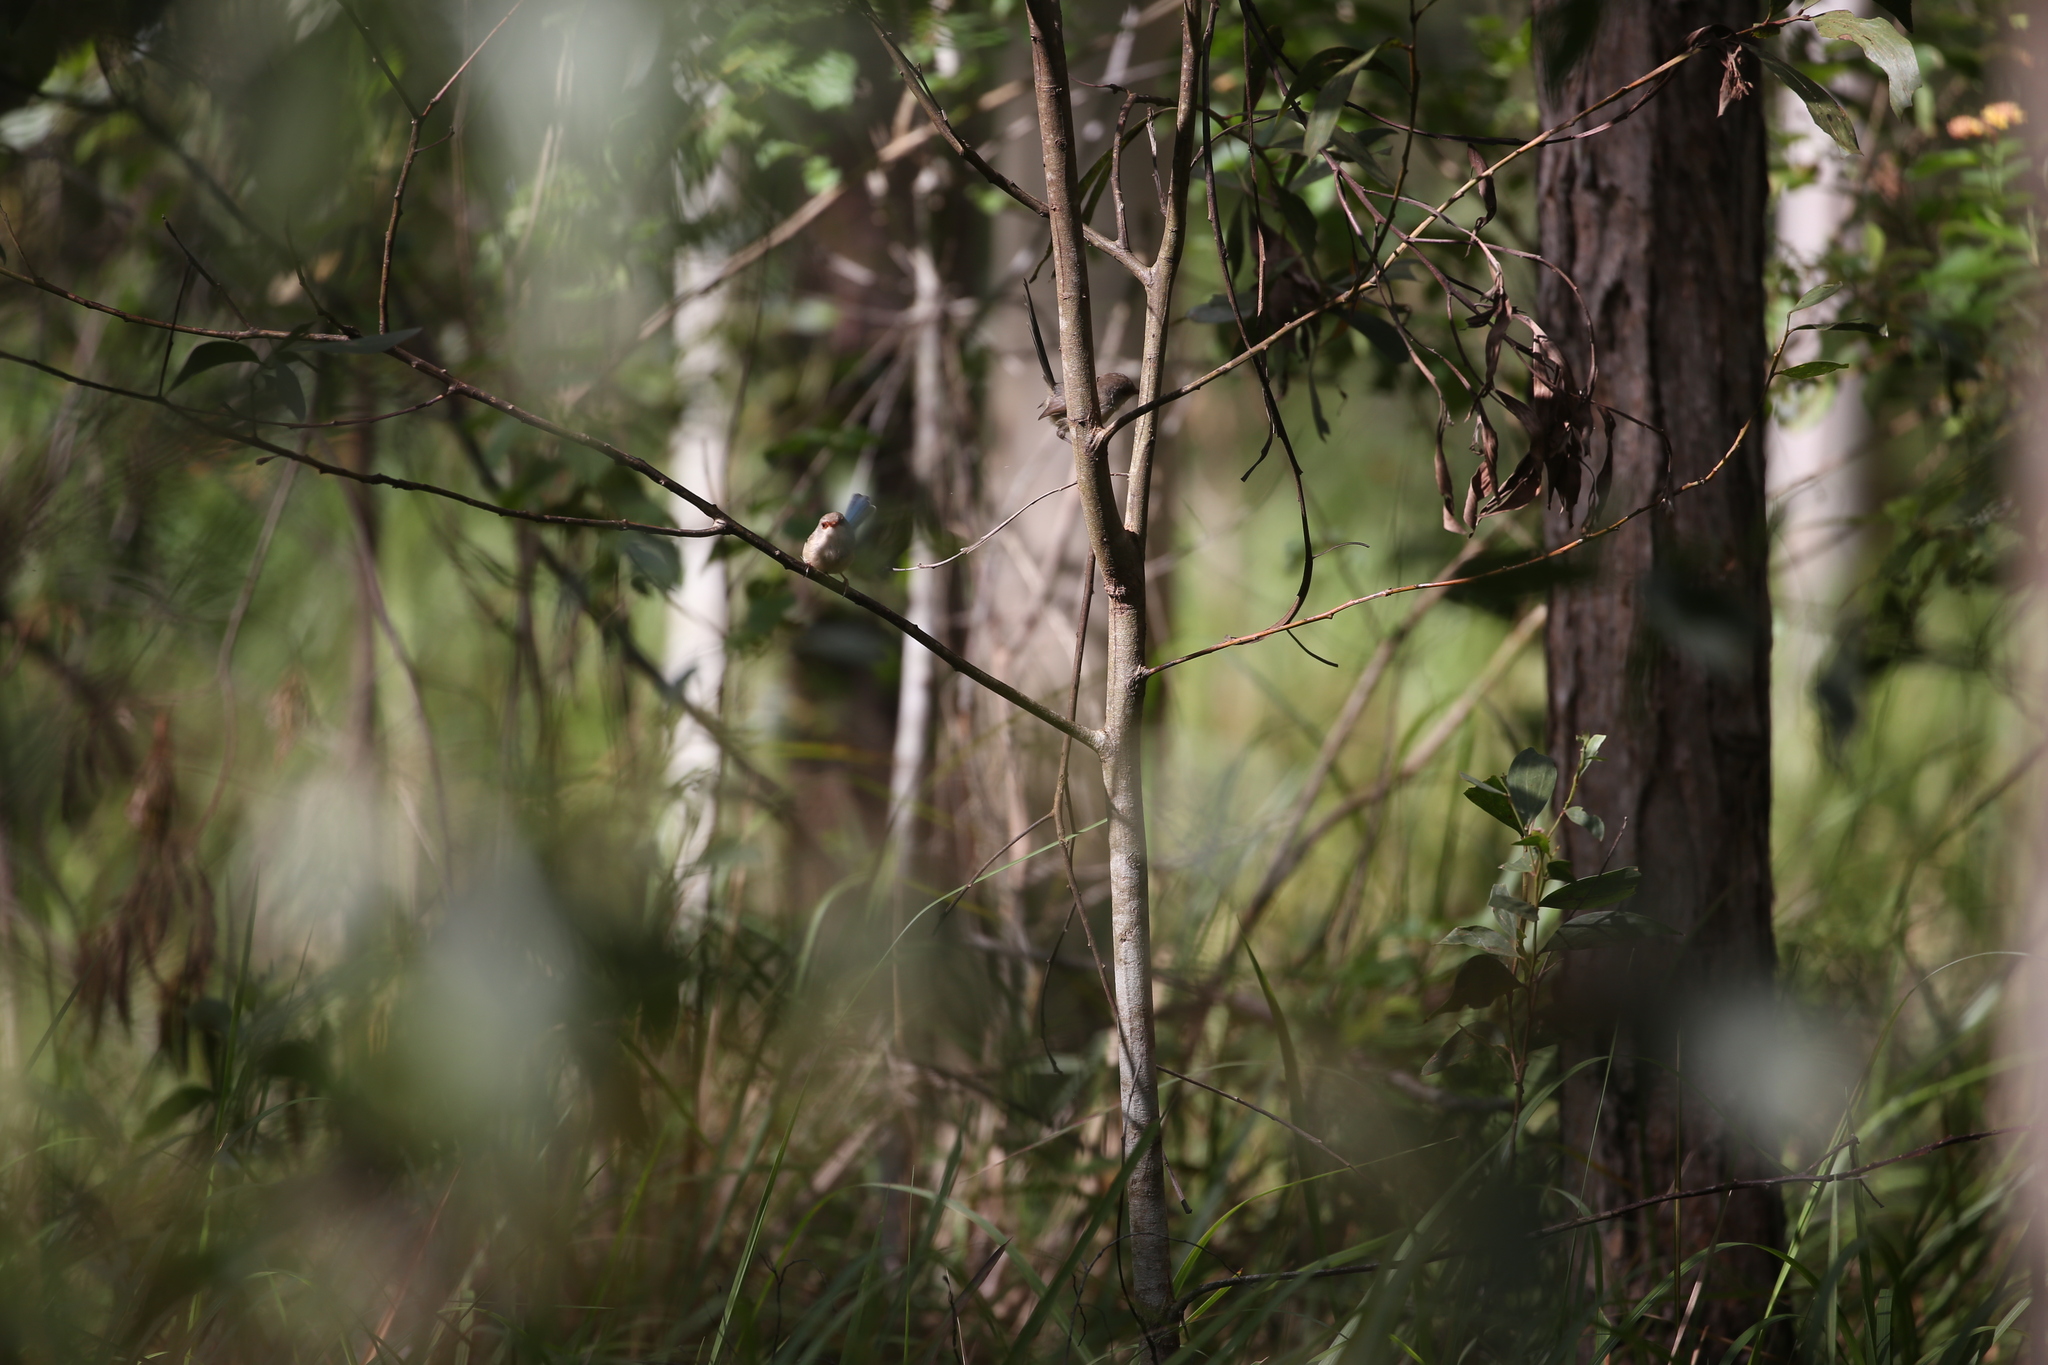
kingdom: Animalia
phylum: Chordata
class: Aves
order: Passeriformes
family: Maluridae
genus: Malurus
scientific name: Malurus lamberti
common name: Variegated fairywren
